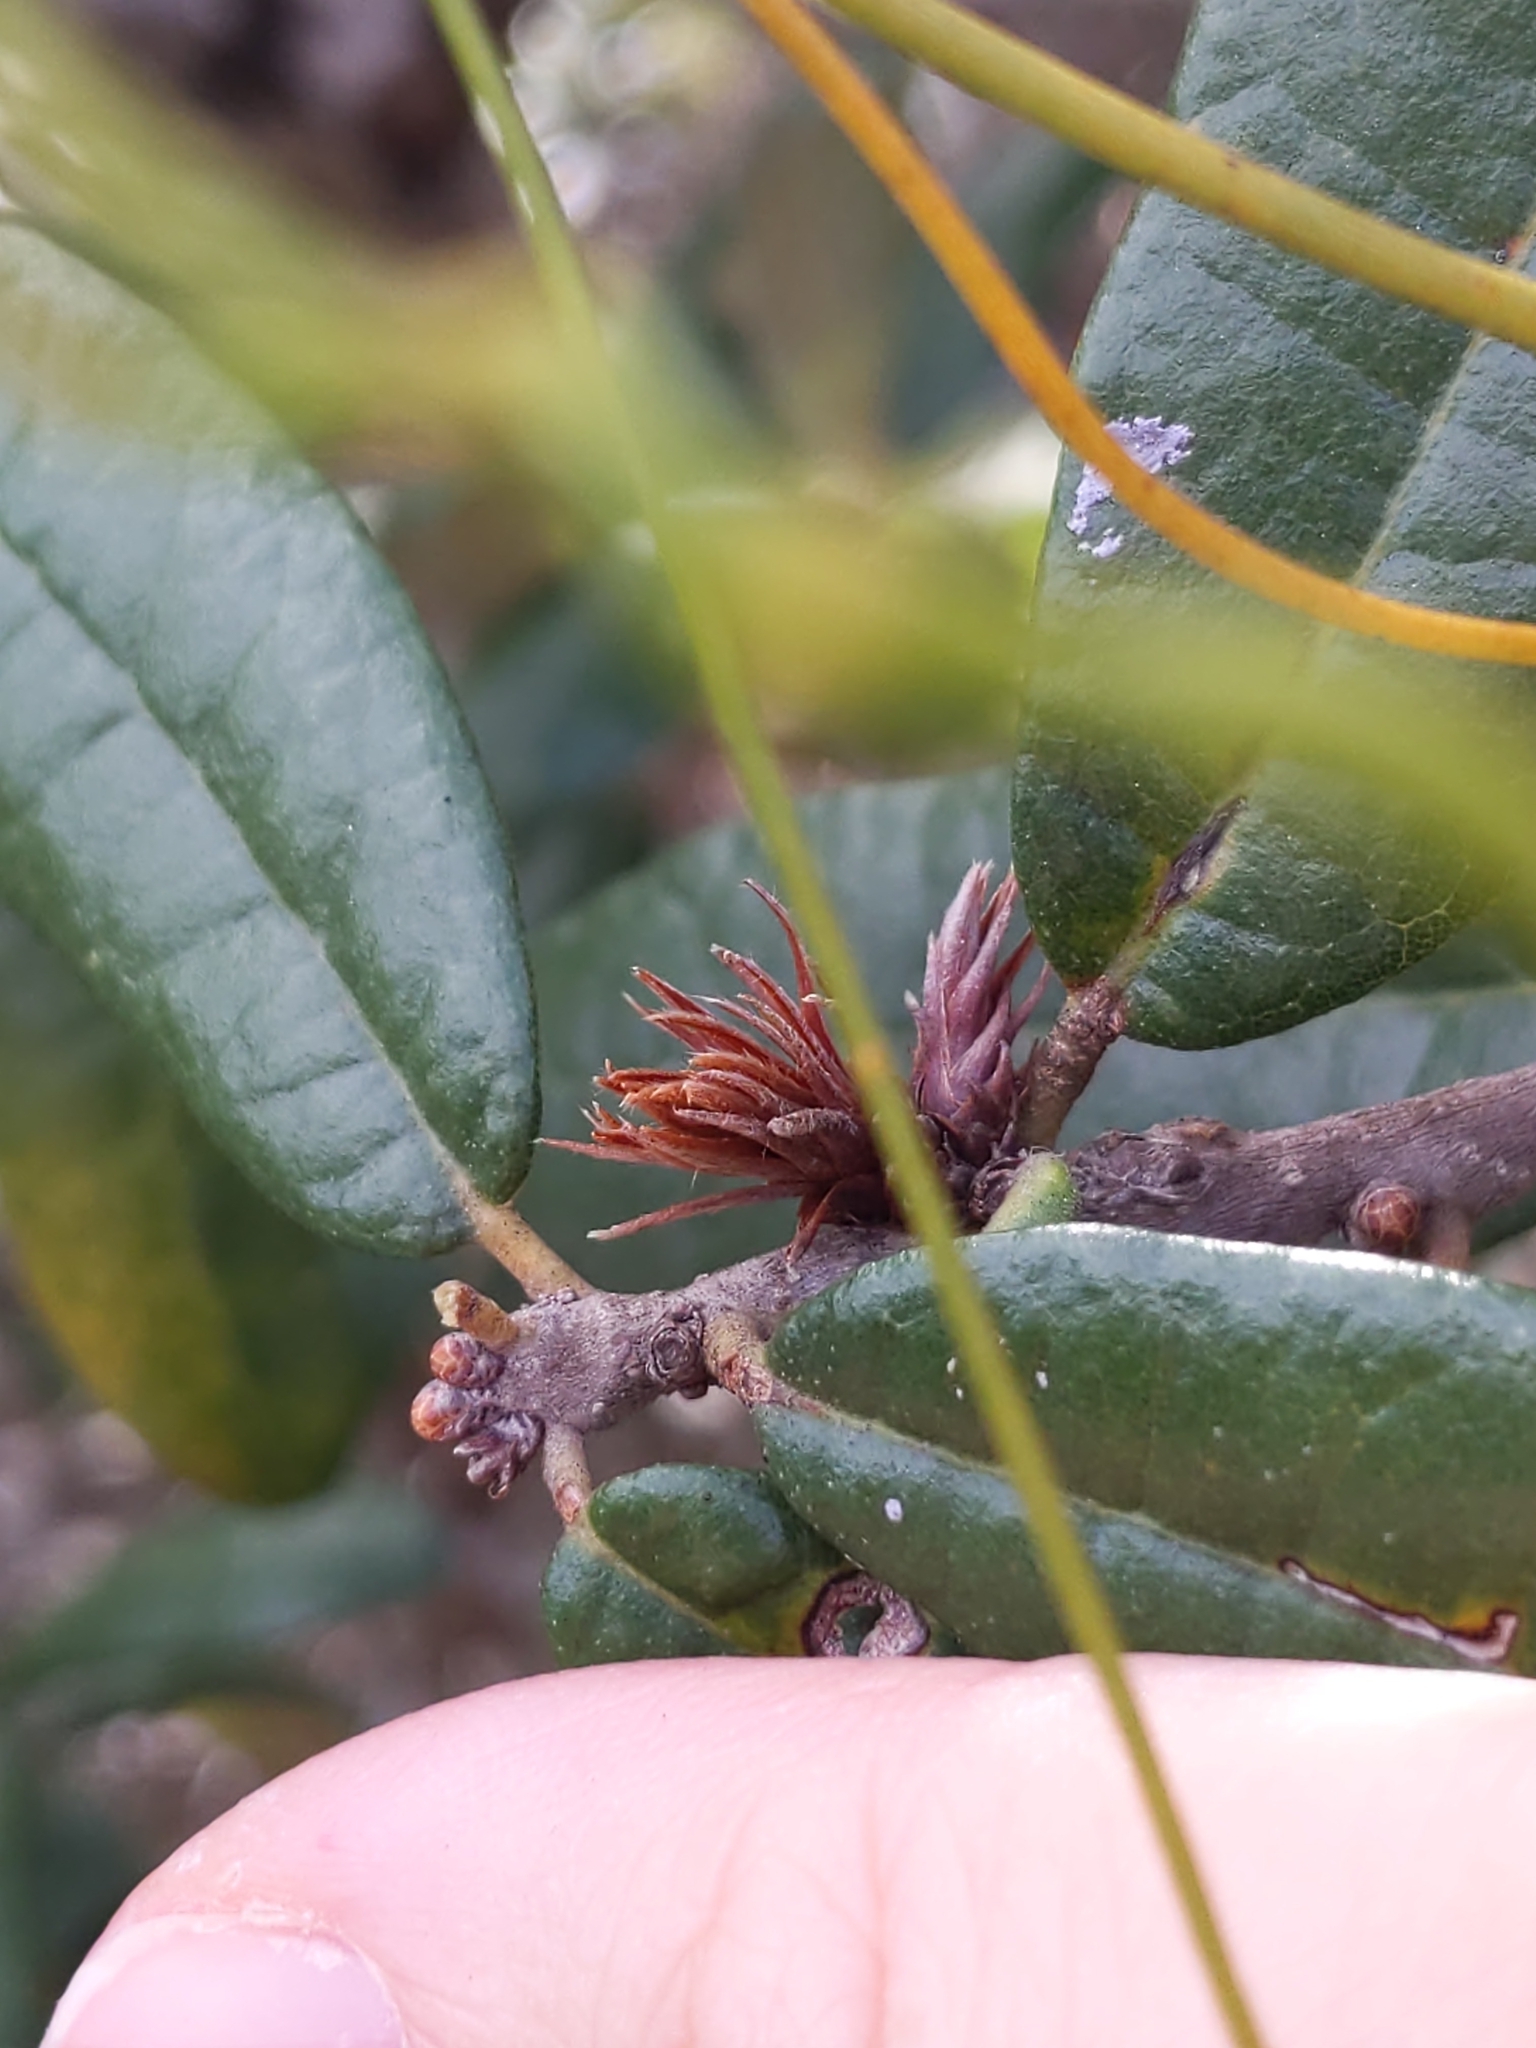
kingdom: Animalia
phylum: Arthropoda
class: Insecta
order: Hymenoptera
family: Cynipidae
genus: Andricus
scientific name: Andricus quercusfoliatus
